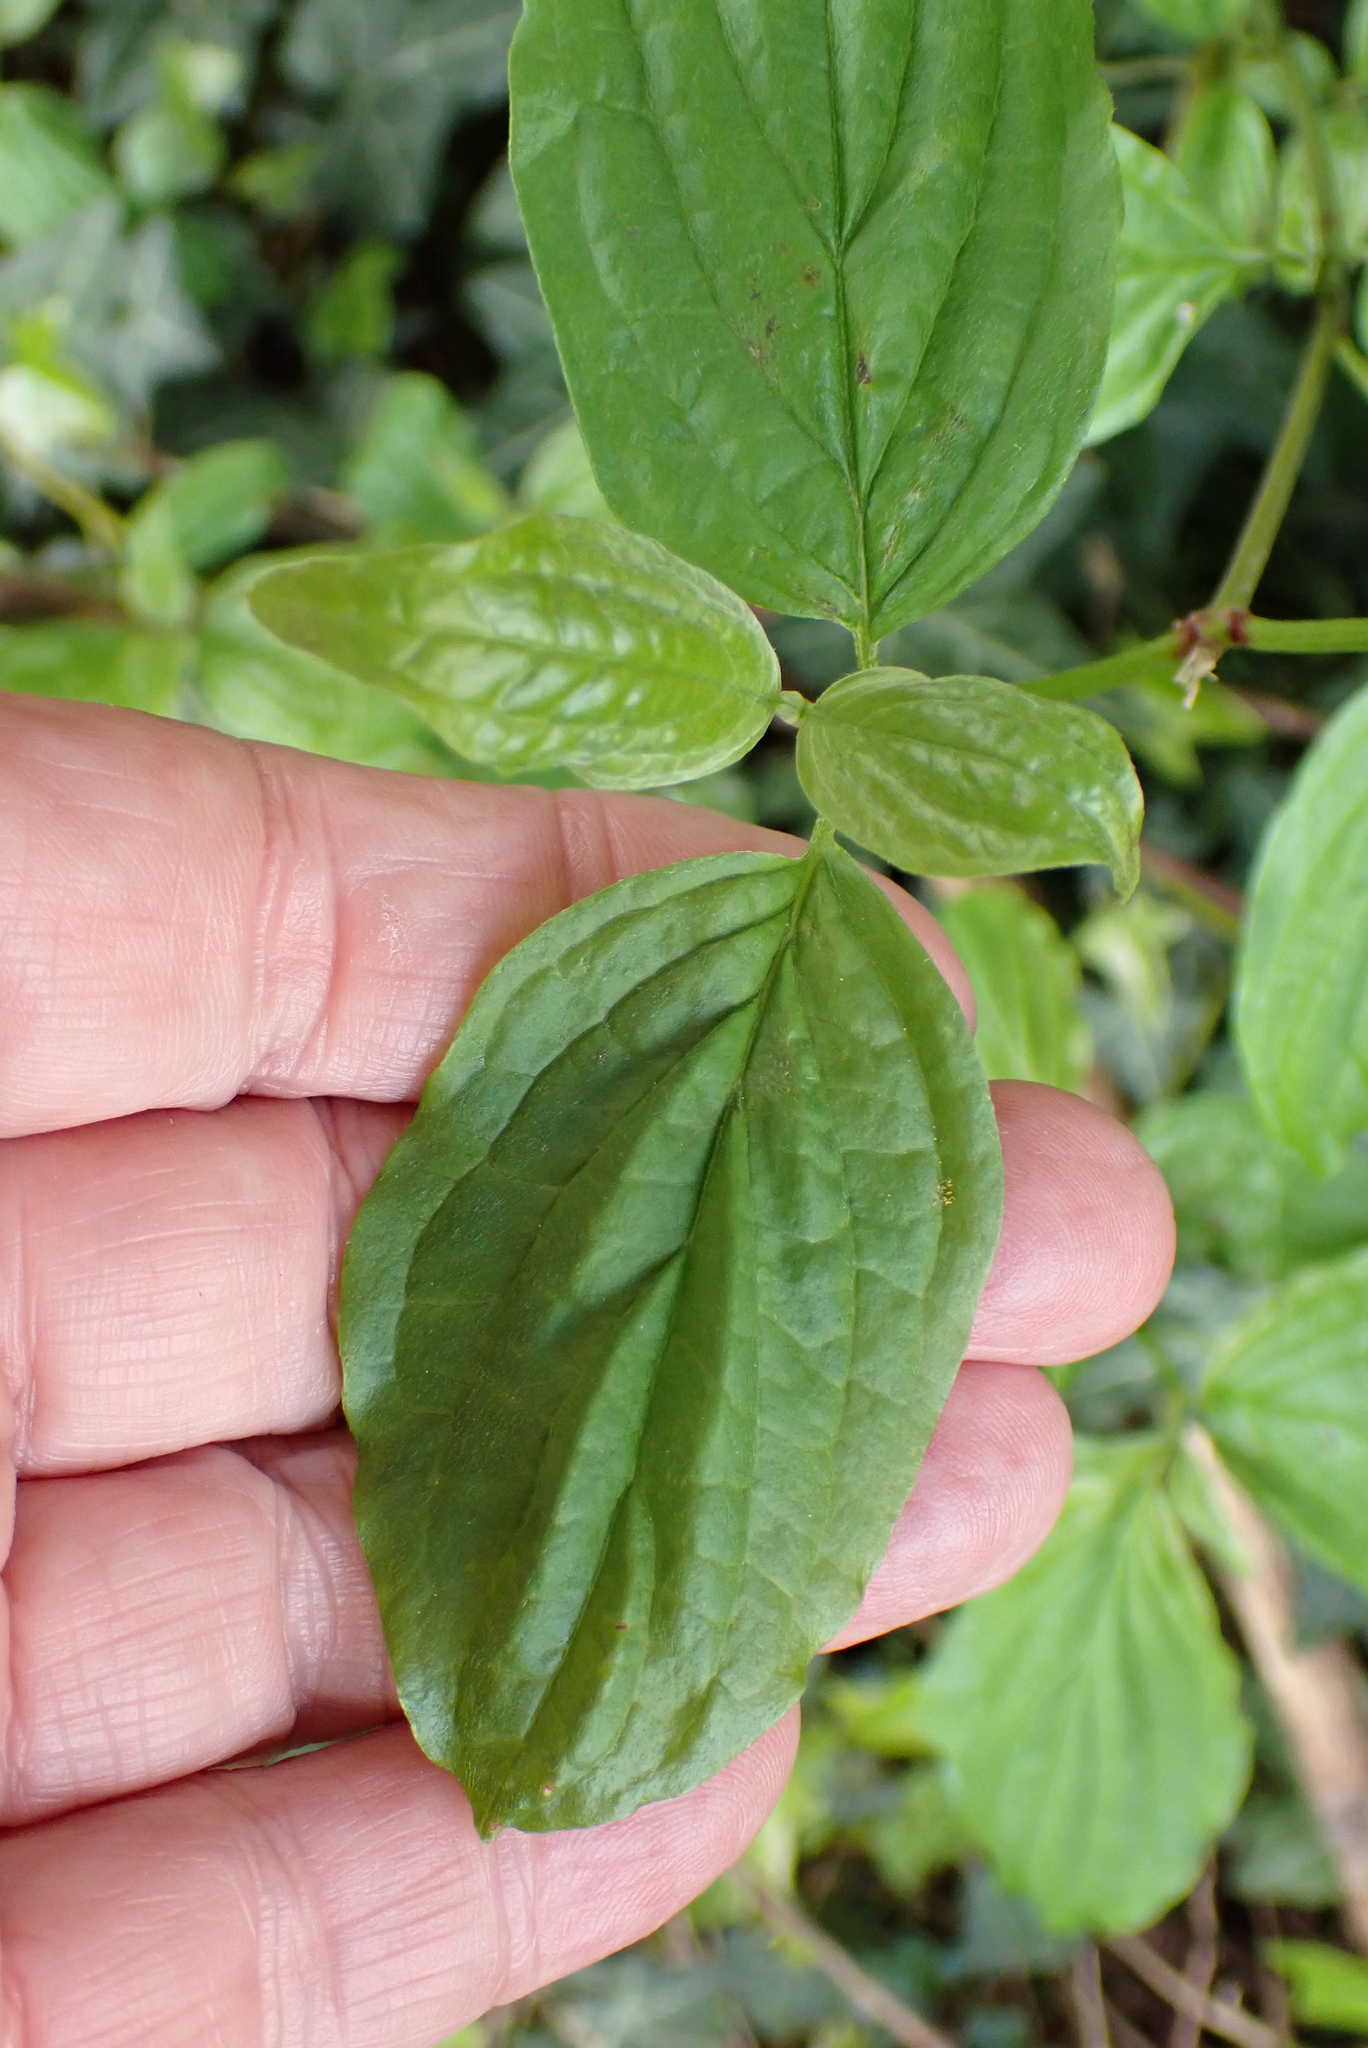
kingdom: Plantae
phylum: Tracheophyta
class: Magnoliopsida
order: Cornales
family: Cornaceae
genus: Cornus
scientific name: Cornus sanguinea
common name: Dogwood
